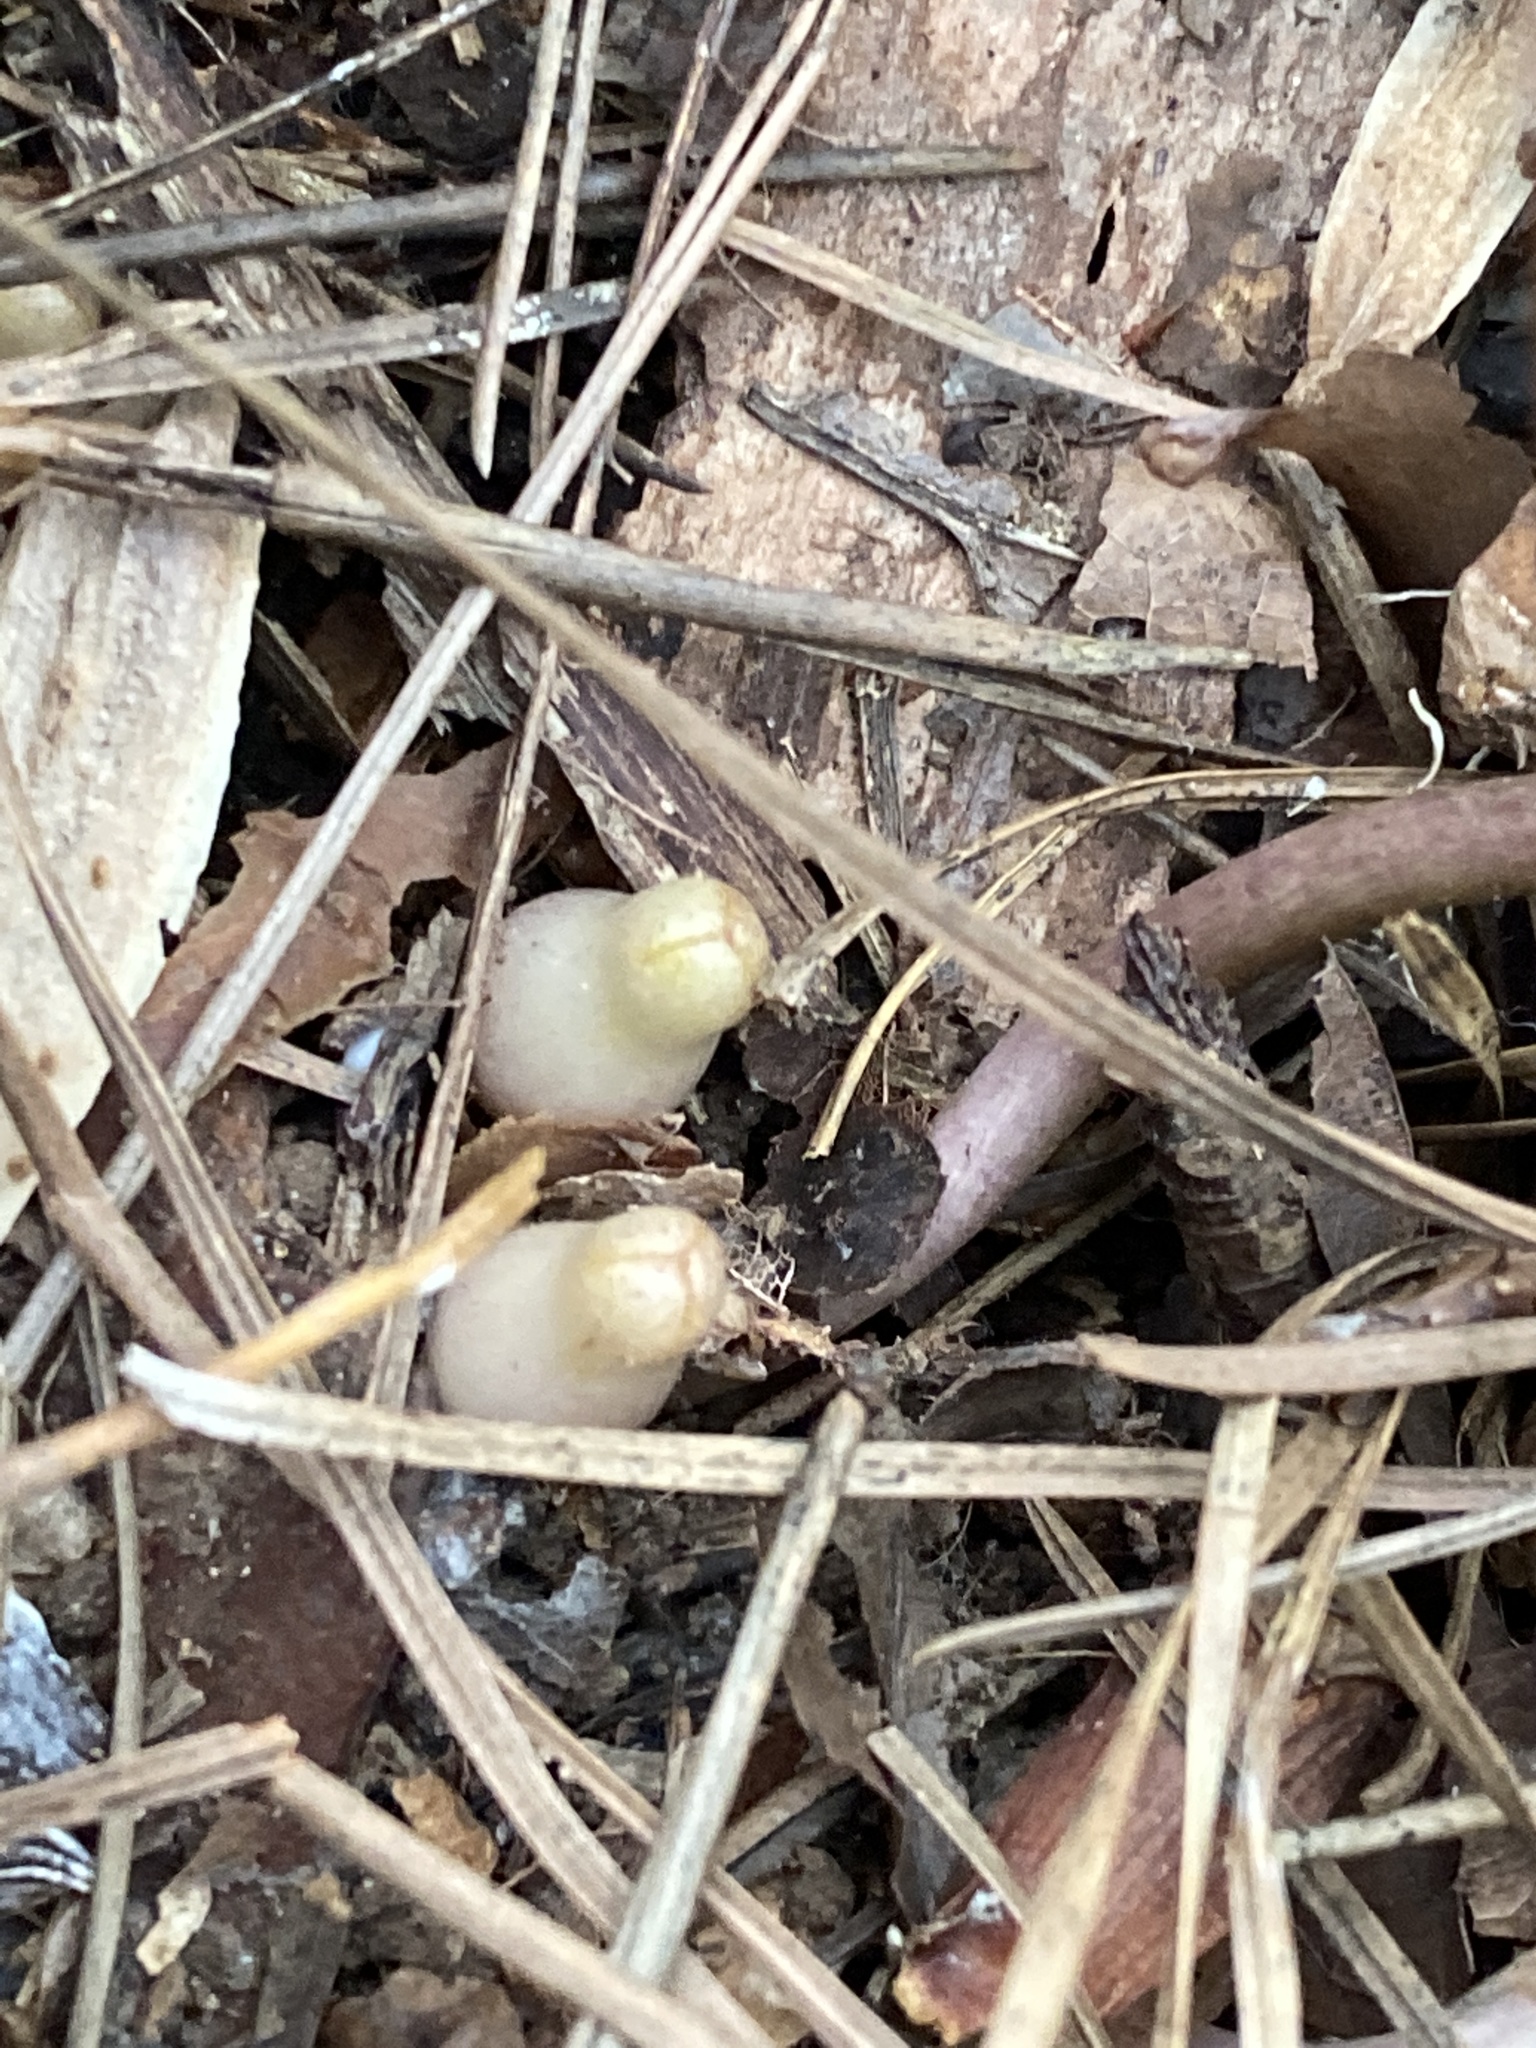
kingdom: Plantae
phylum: Tracheophyta
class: Magnoliopsida
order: Piperales
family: Aristolochiaceae
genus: Hexastylis
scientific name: Hexastylis arifolia
